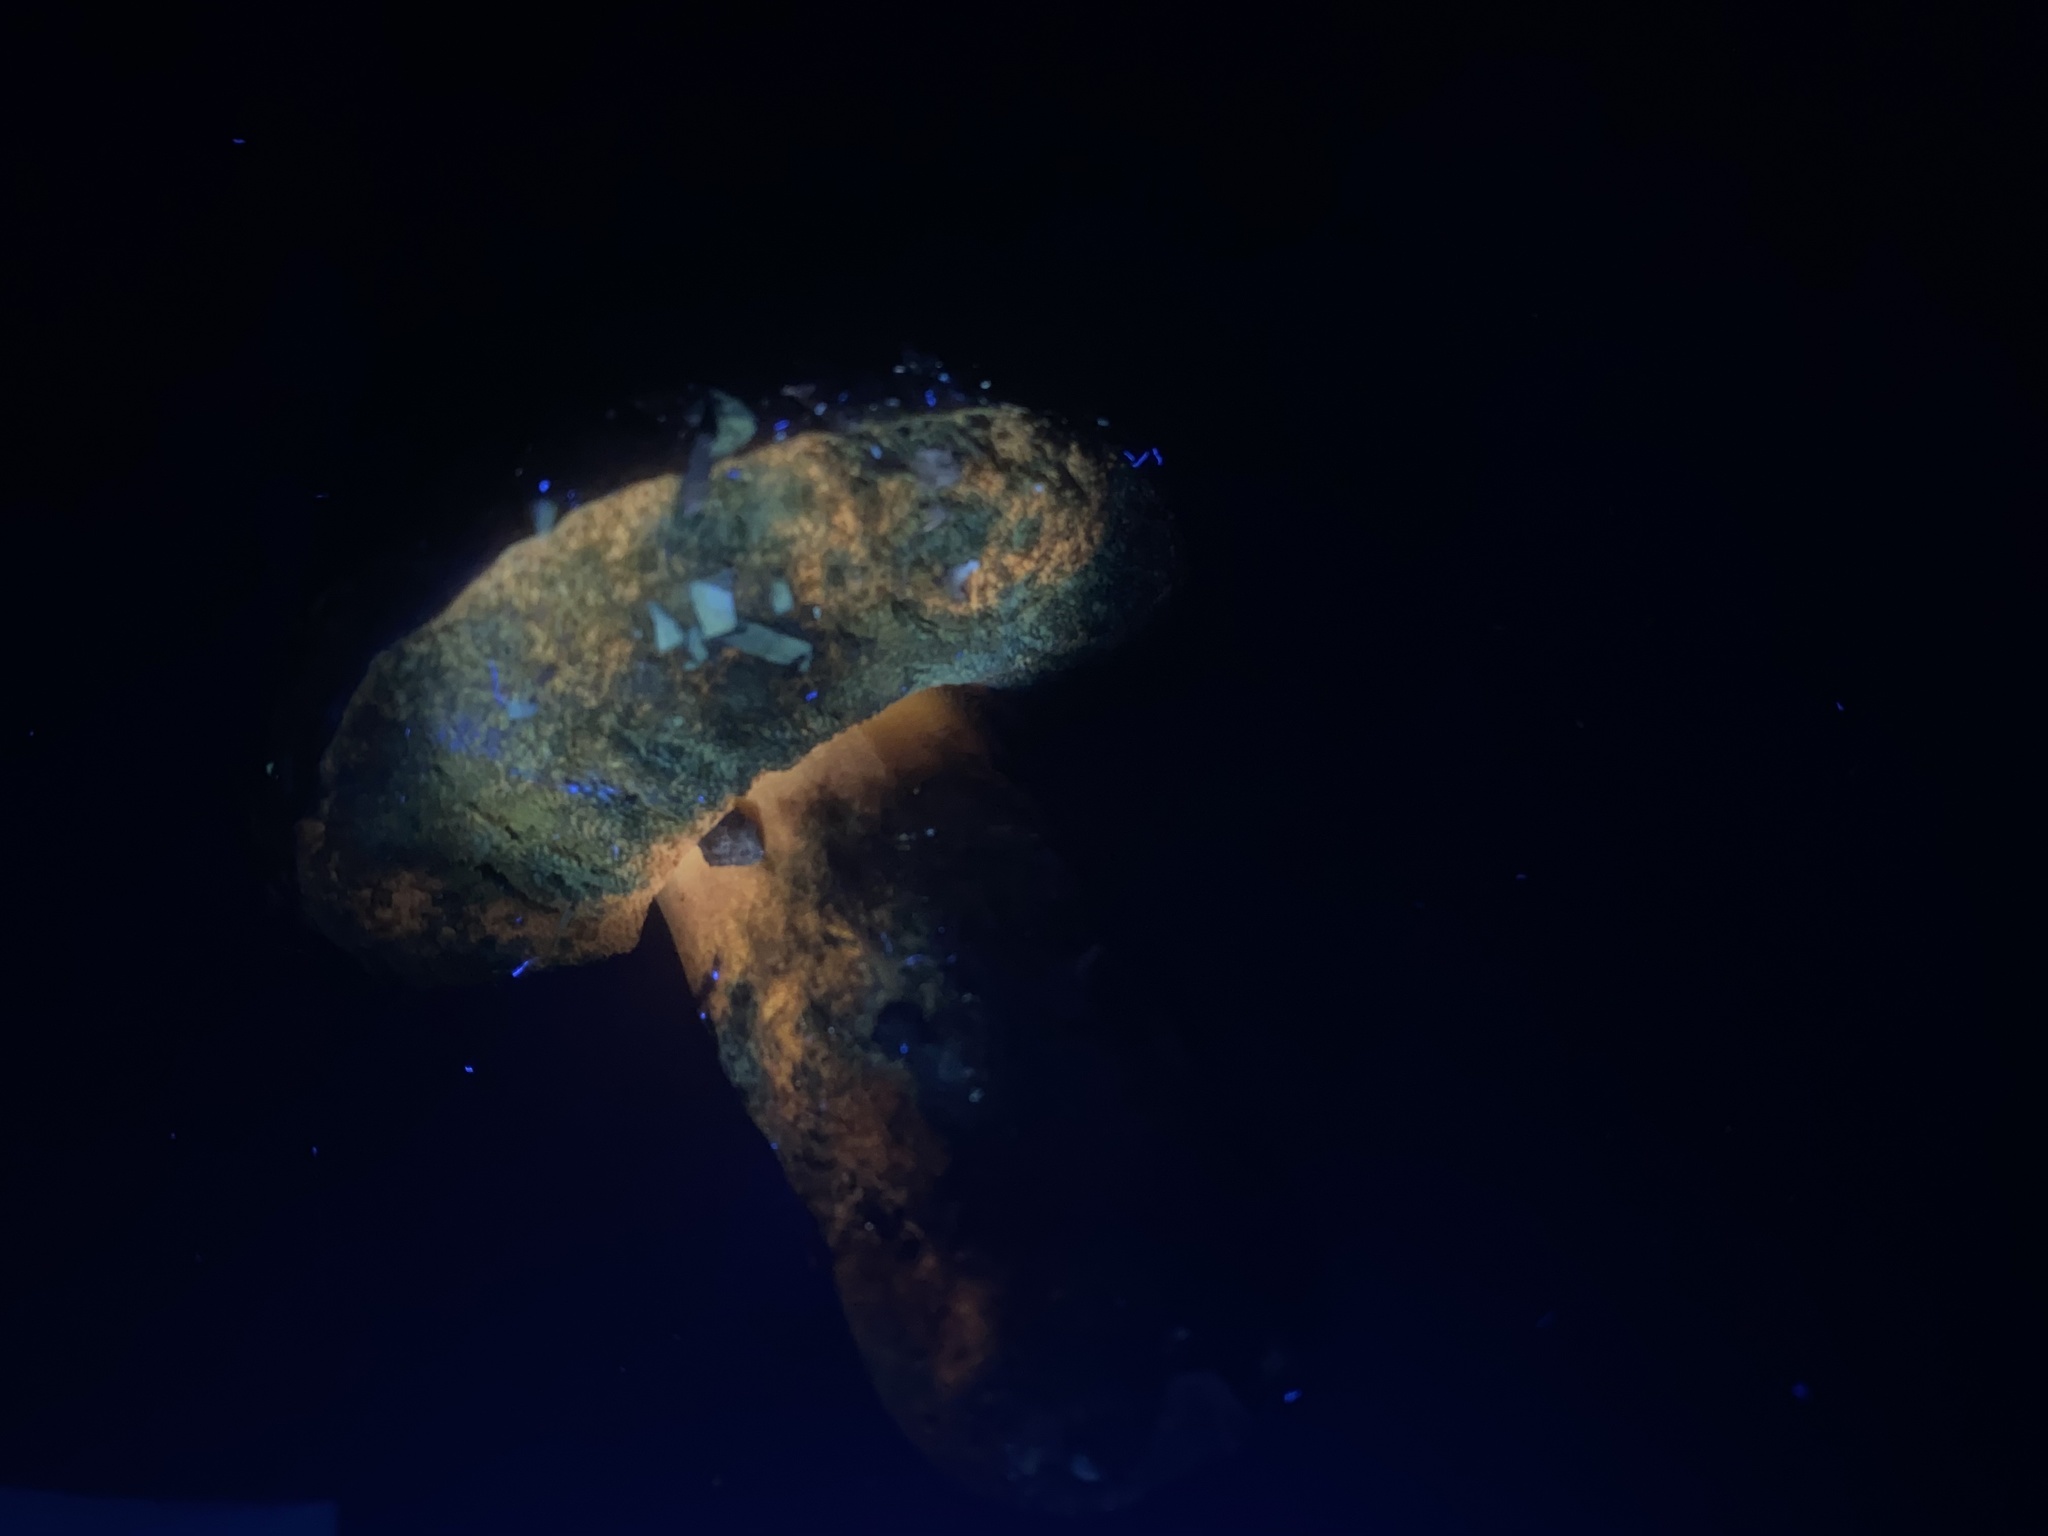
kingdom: Fungi
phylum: Basidiomycota
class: Agaricomycetes
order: Boletales
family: Boletaceae
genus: Suillellus
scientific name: Suillellus amygdalinus
